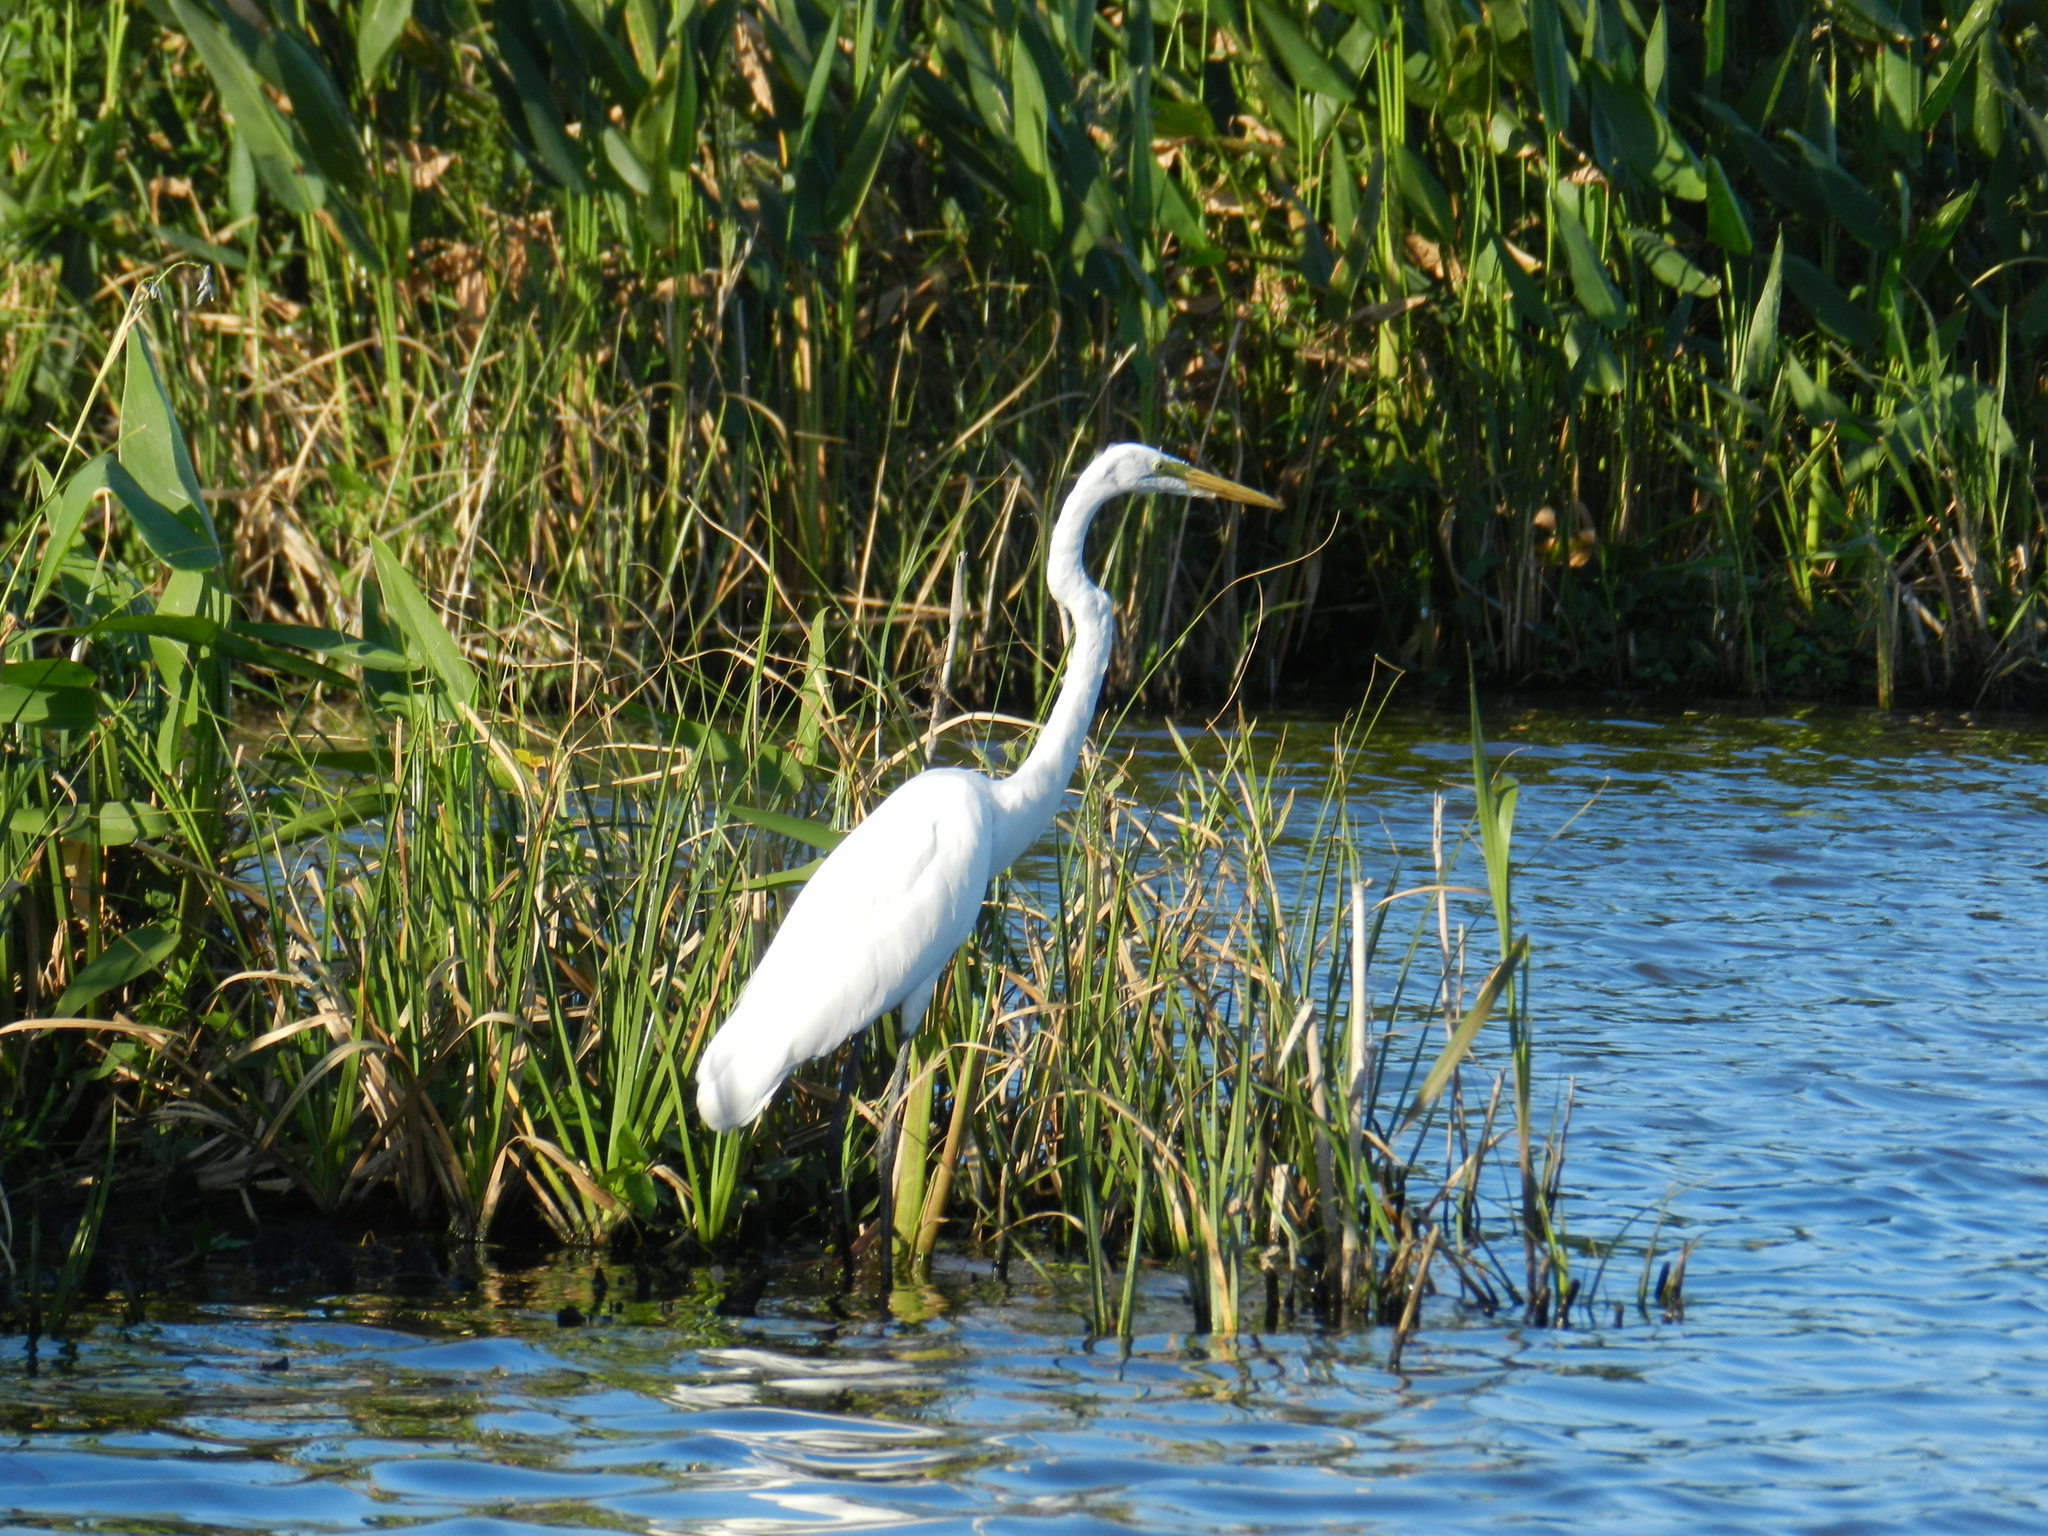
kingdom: Animalia
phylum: Chordata
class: Aves
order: Pelecaniformes
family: Ardeidae
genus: Ardea
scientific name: Ardea alba
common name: Great egret
